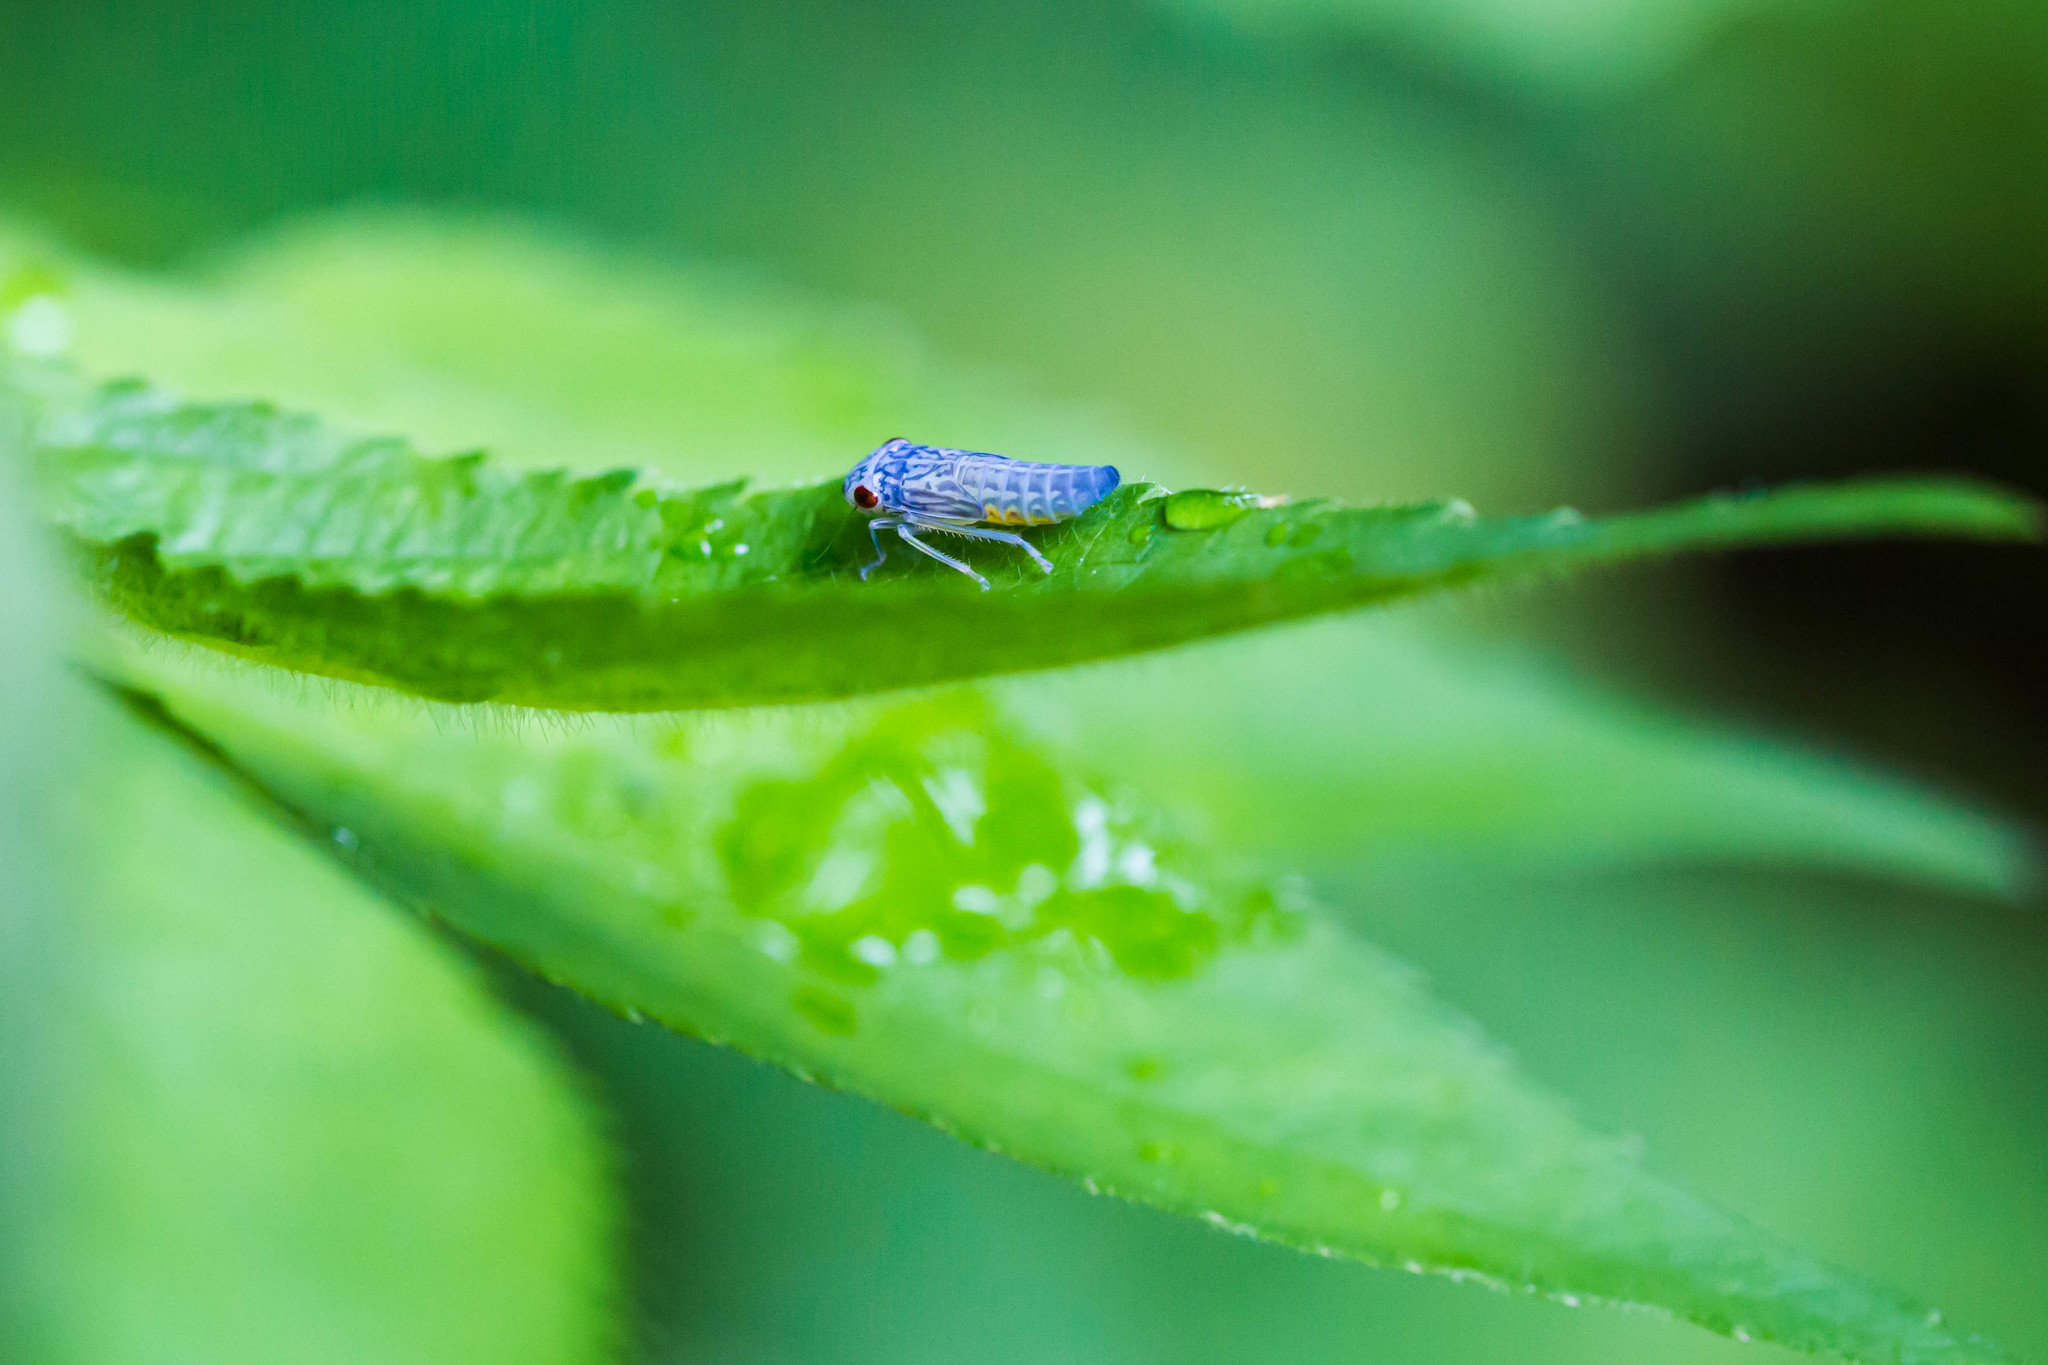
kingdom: Animalia
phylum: Arthropoda
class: Insecta
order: Hemiptera
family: Cicadellidae
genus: Oncometopia
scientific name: Oncometopia orbona
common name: Broad-headed sharpshooter
